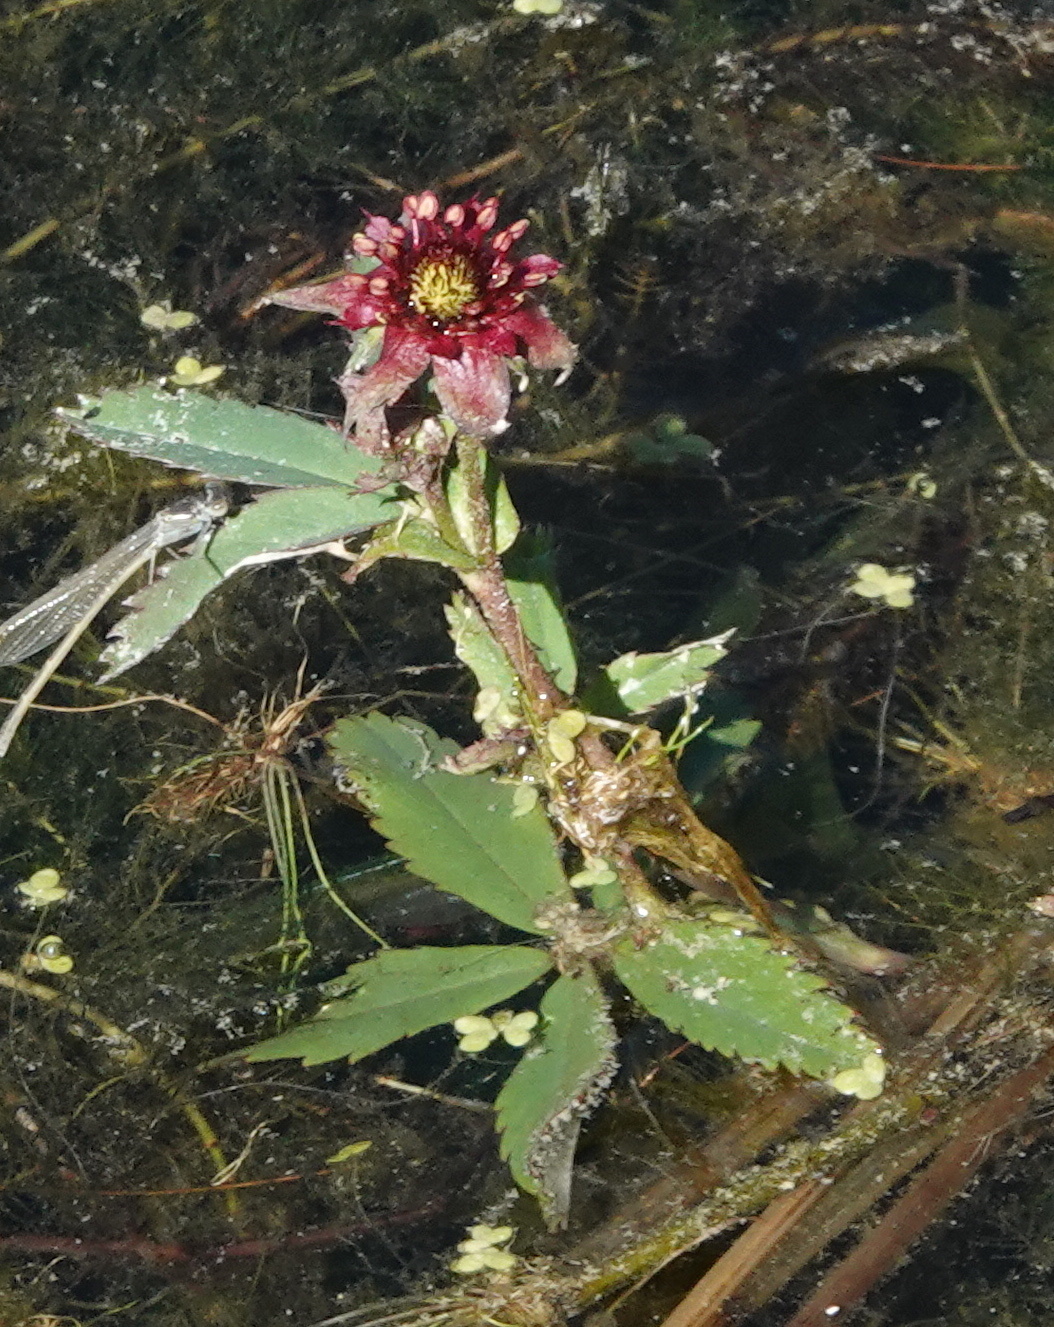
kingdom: Plantae
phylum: Tracheophyta
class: Magnoliopsida
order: Rosales
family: Rosaceae
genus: Comarum
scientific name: Comarum palustre
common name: Marsh cinquefoil
